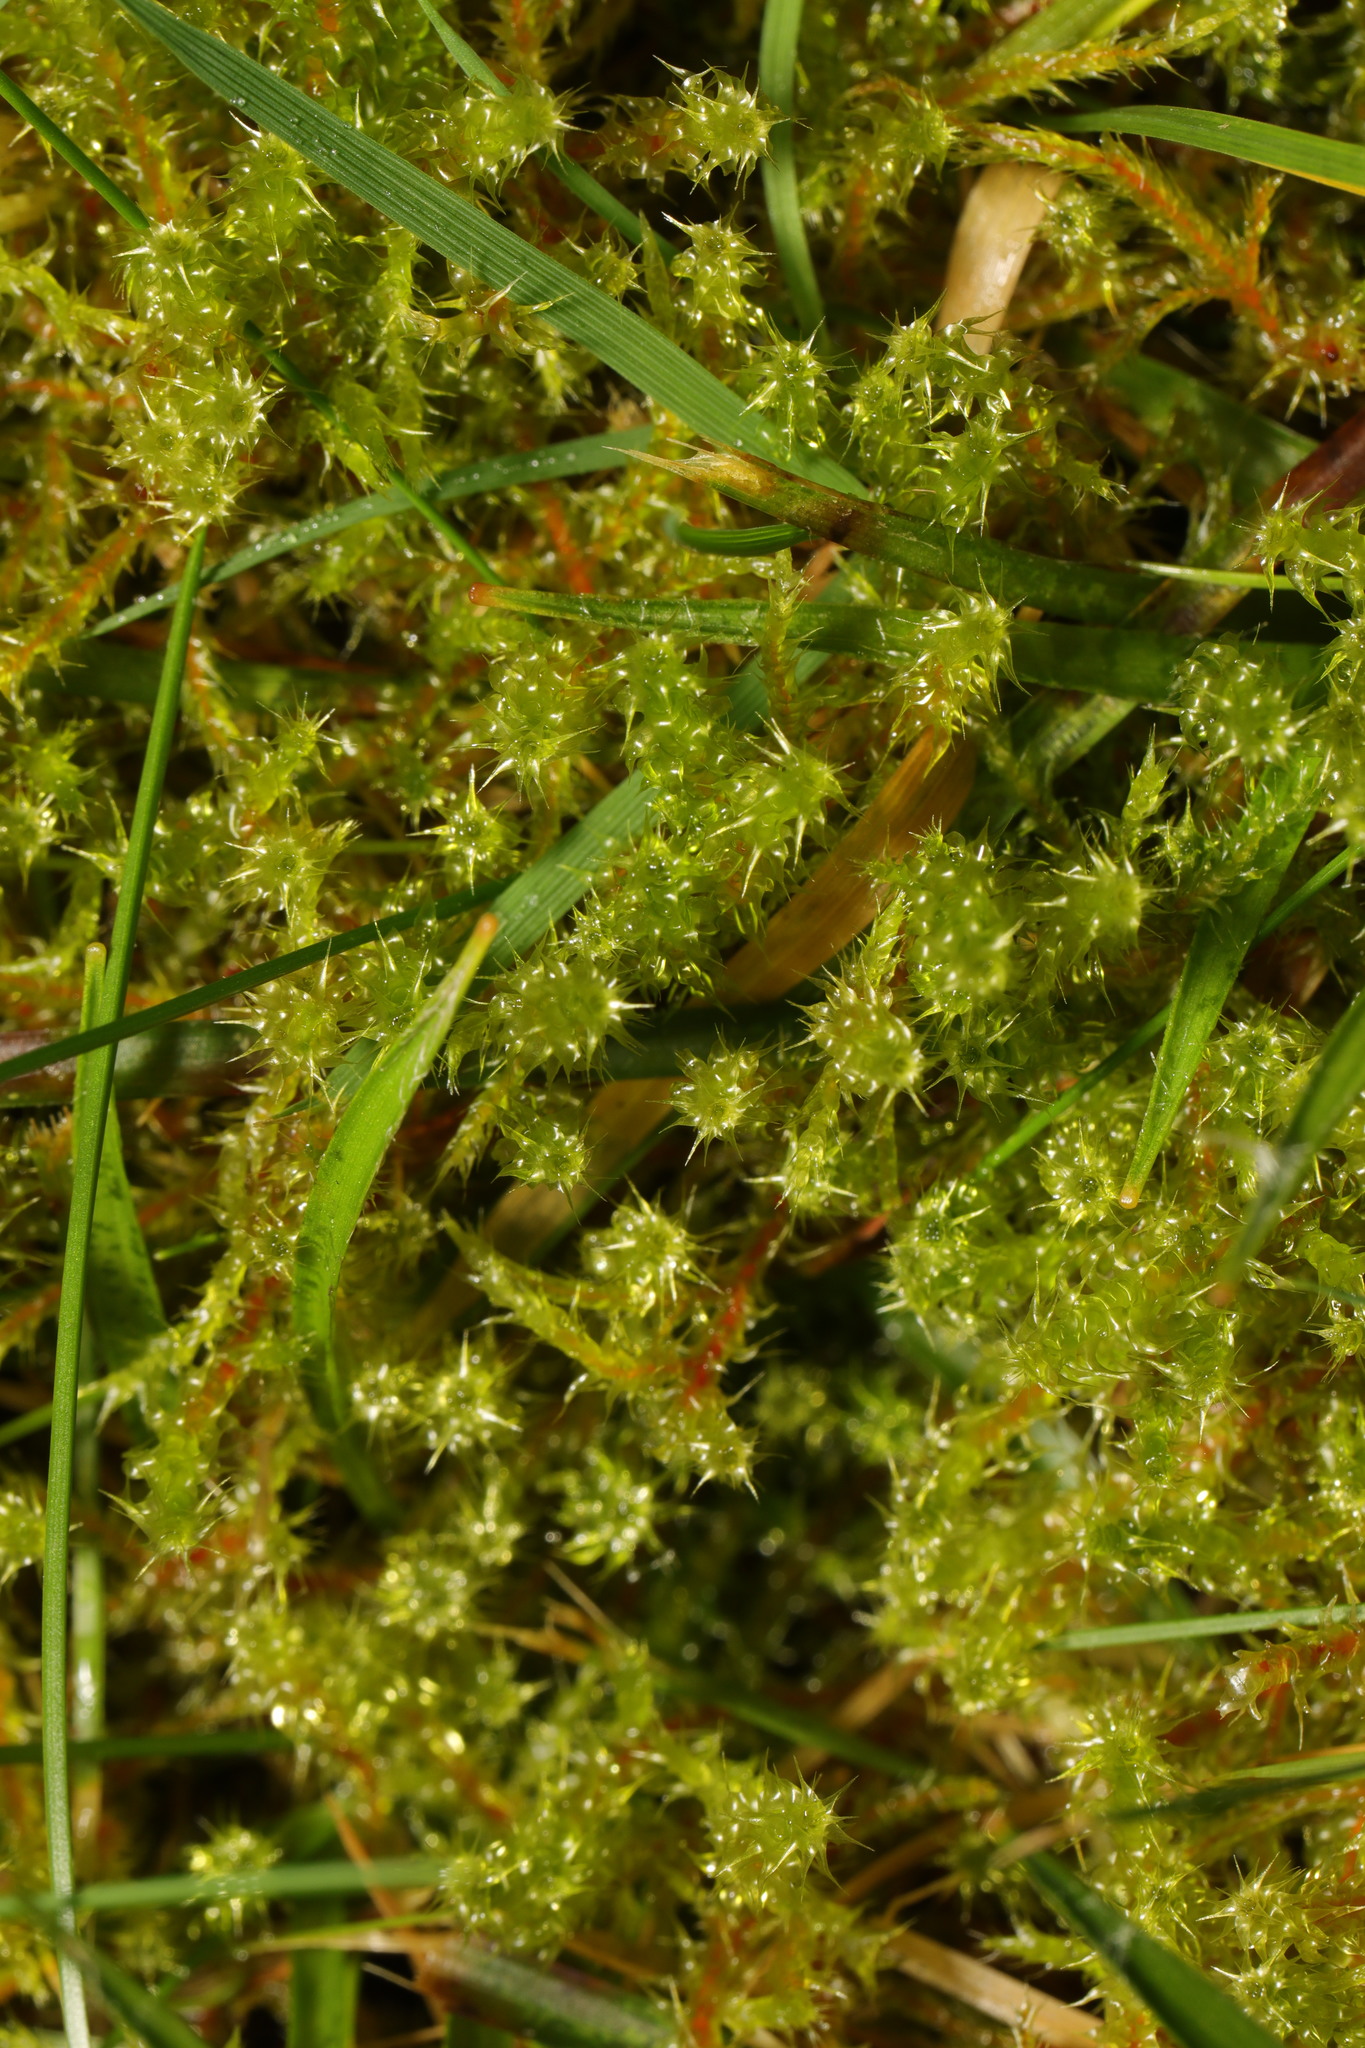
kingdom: Plantae
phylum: Bryophyta
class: Bryopsida
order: Hypnales
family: Hylocomiaceae
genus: Rhytidiadelphus
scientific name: Rhytidiadelphus squarrosus
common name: Springy turf-moss
